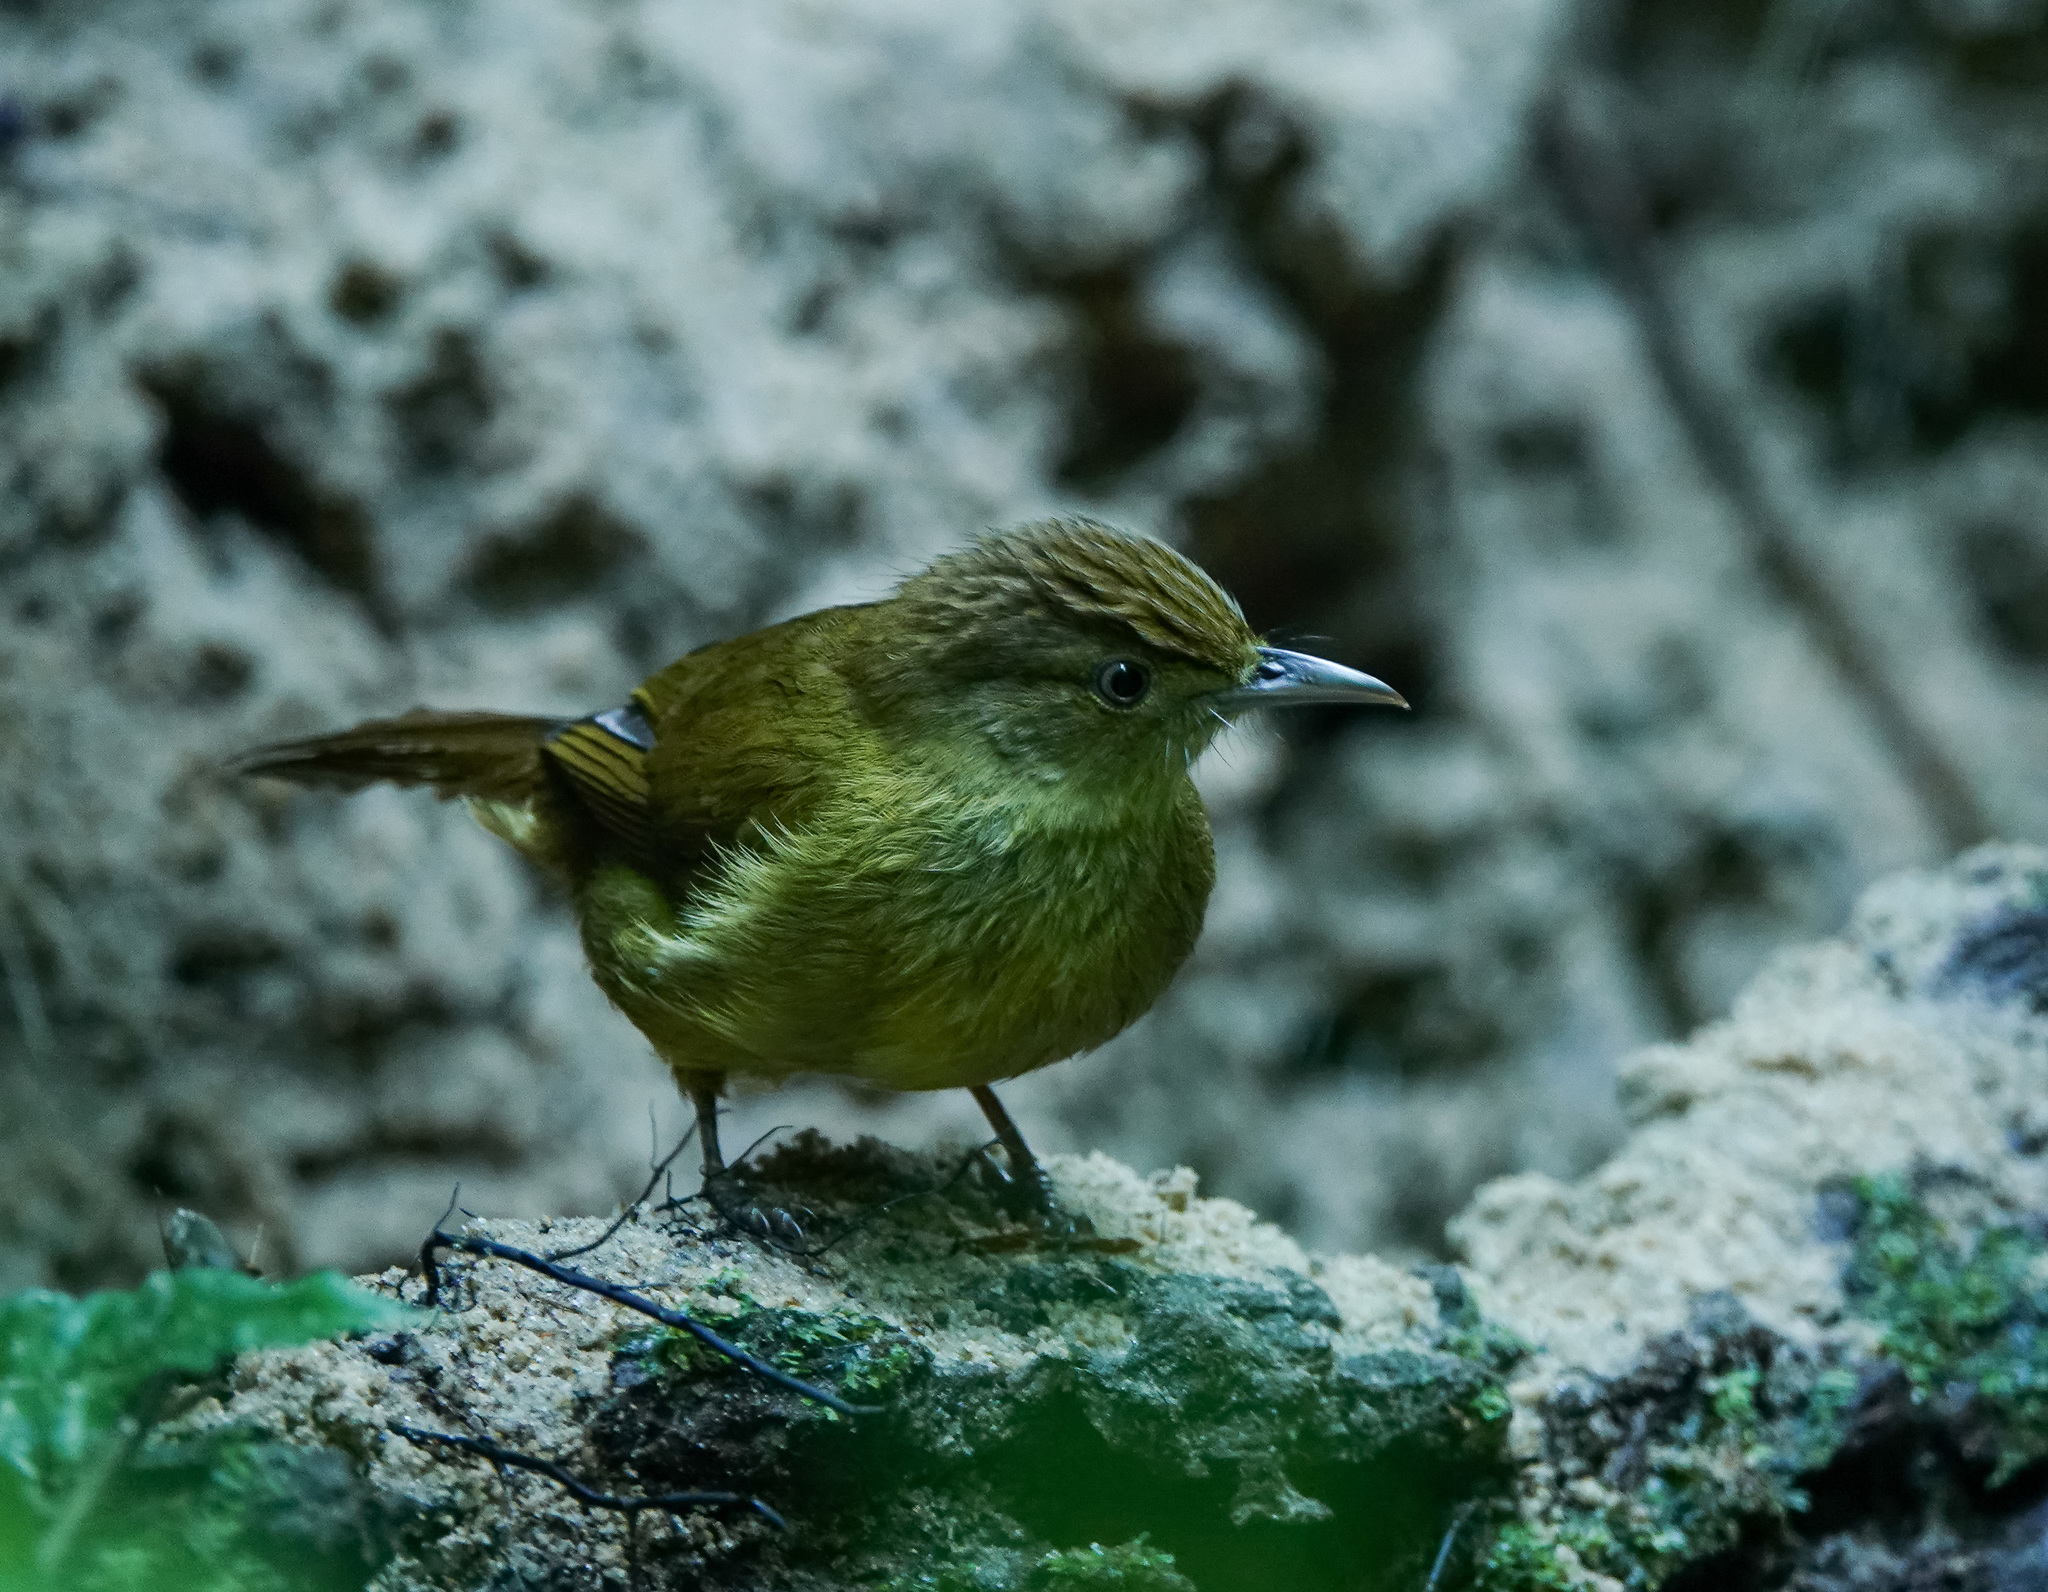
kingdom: Animalia
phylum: Chordata
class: Aves
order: Passeriformes
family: Pycnonotidae
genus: Iole
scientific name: Iole virescens
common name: Olive bulbul
